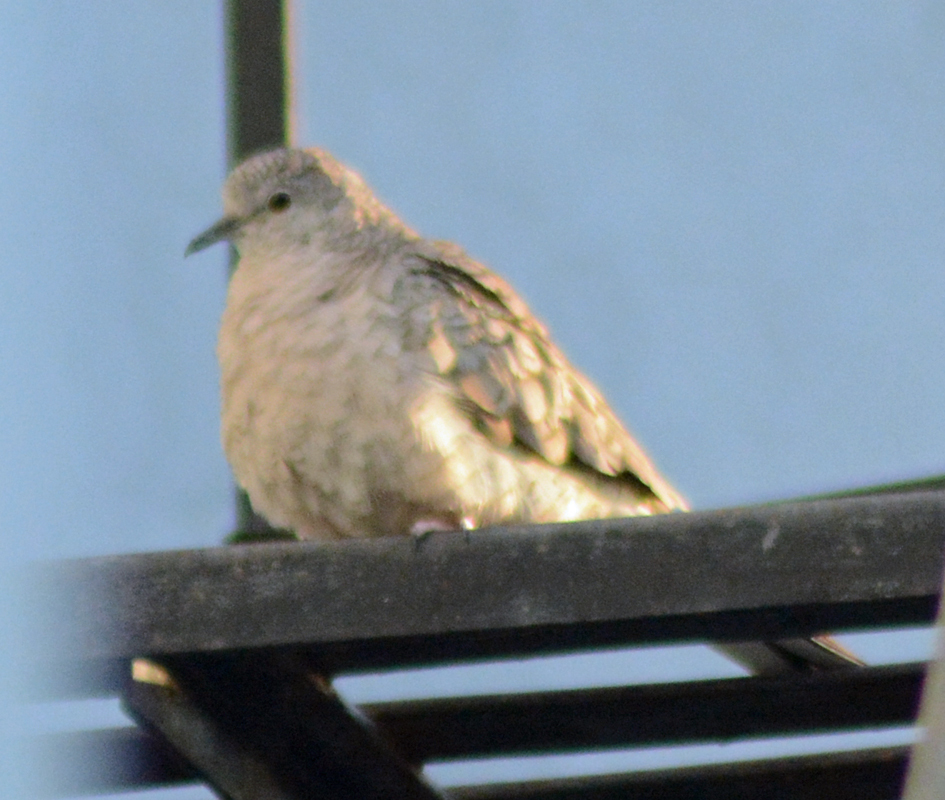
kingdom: Animalia
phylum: Chordata
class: Aves
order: Columbiformes
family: Columbidae
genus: Columbina
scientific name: Columbina inca
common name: Inca dove
